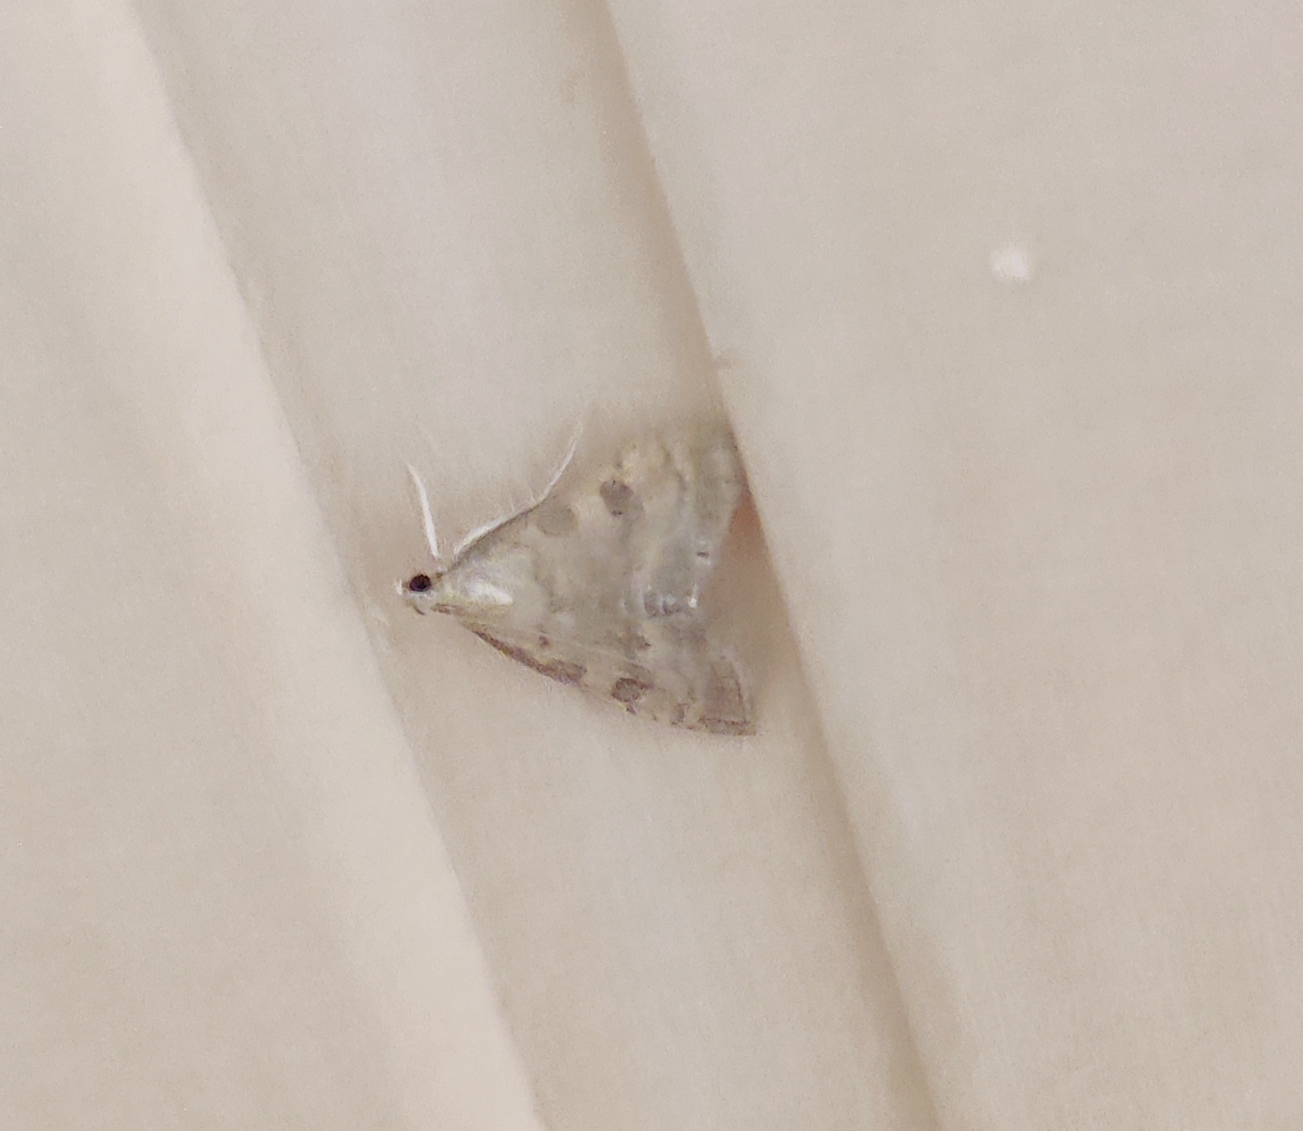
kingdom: Animalia
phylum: Arthropoda
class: Insecta
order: Lepidoptera
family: Crambidae
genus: Udea
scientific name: Udea fulvalis
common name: Fulvous pearl
